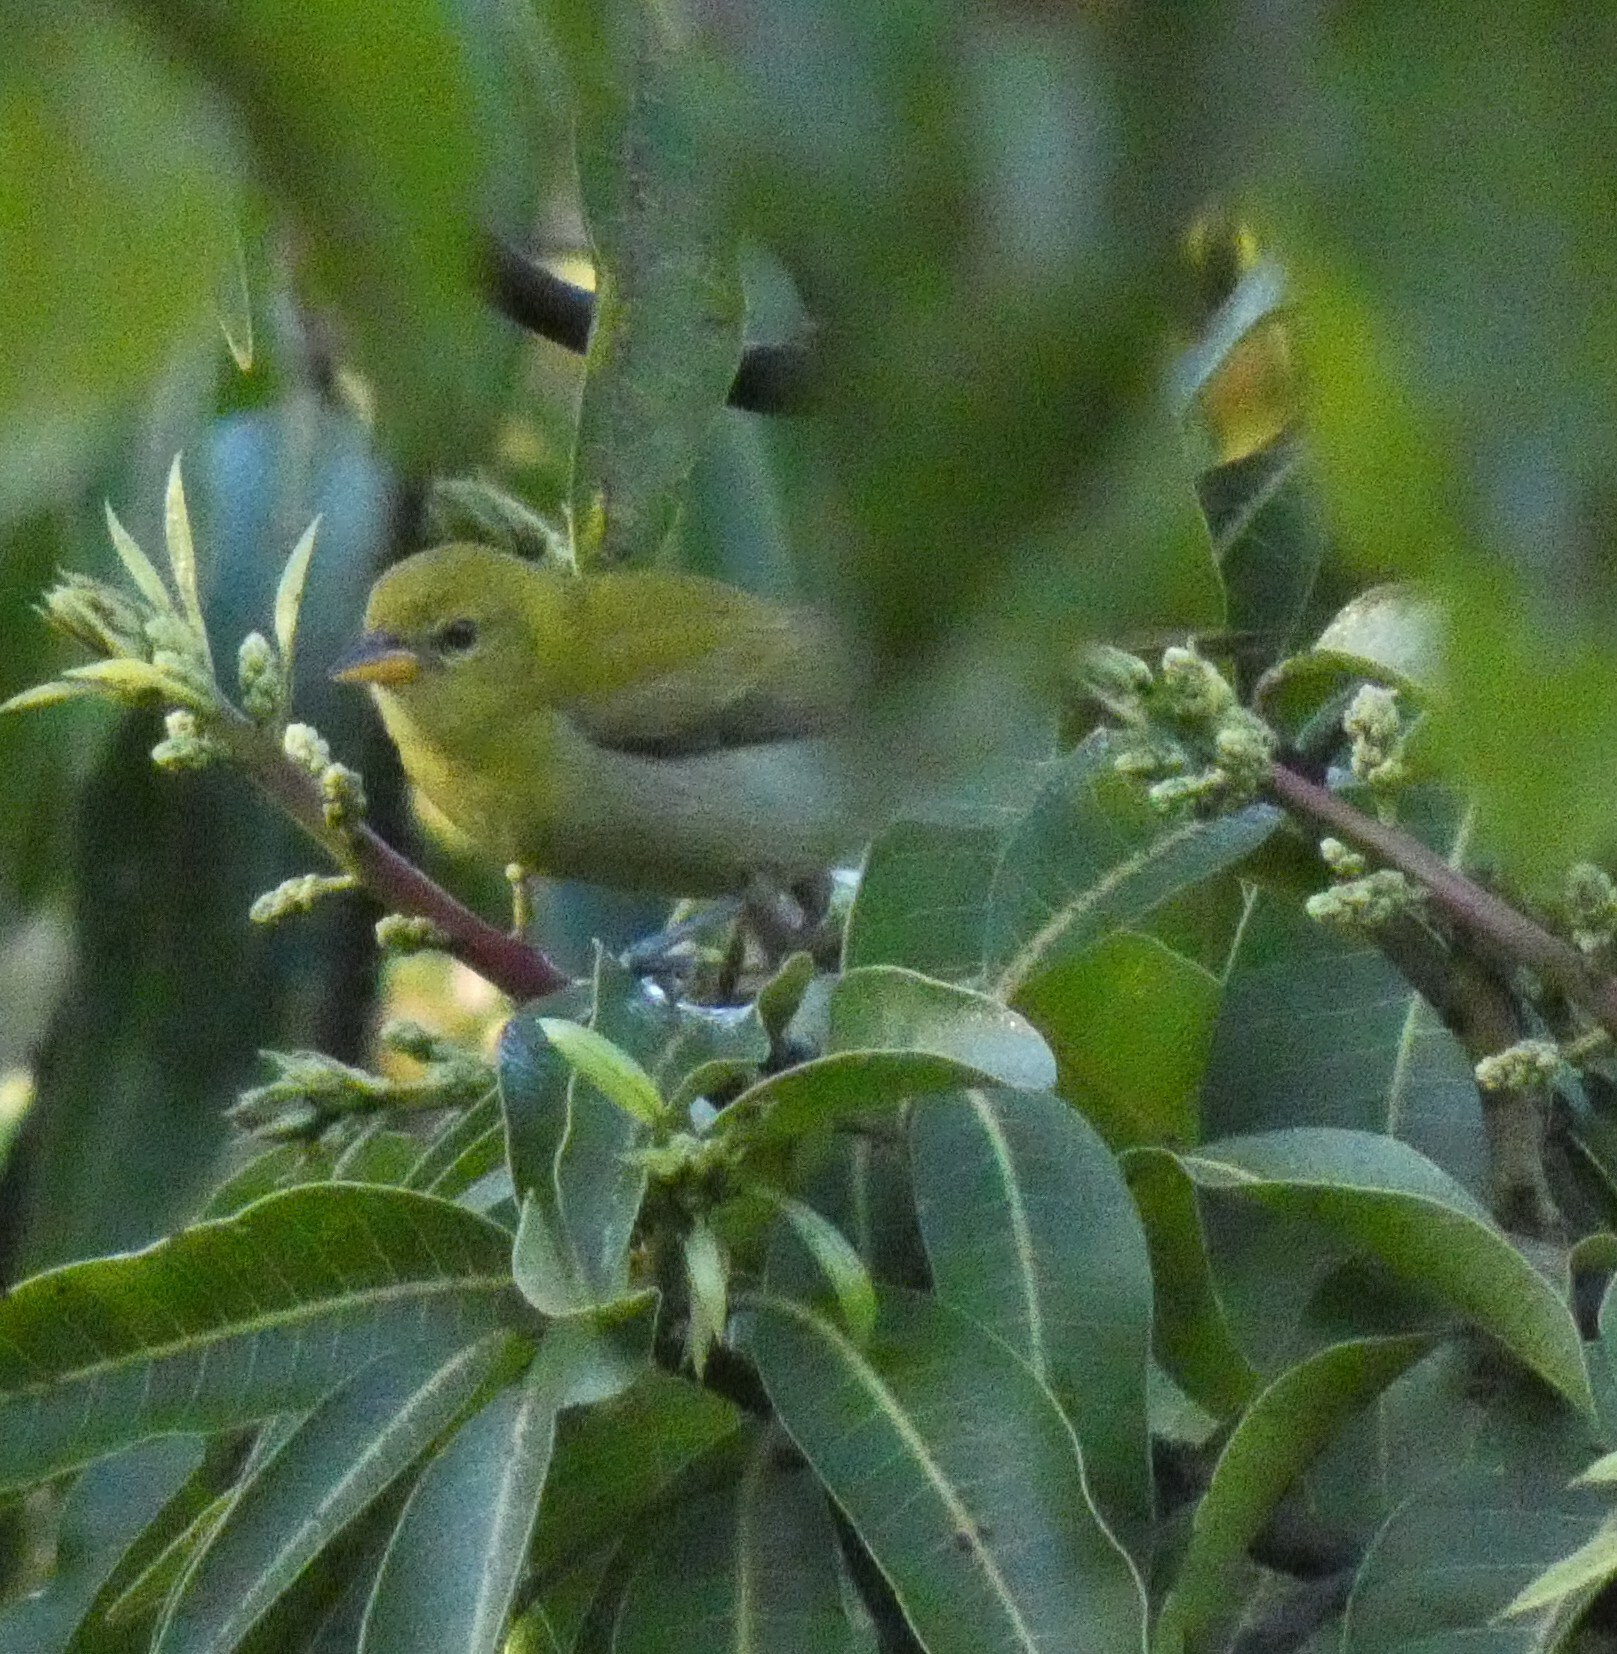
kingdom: Animalia
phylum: Chordata
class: Aves
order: Passeriformes
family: Thraupidae
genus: Hemithraupis
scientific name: Hemithraupis ruficapilla
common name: Rufous-headed tanager
